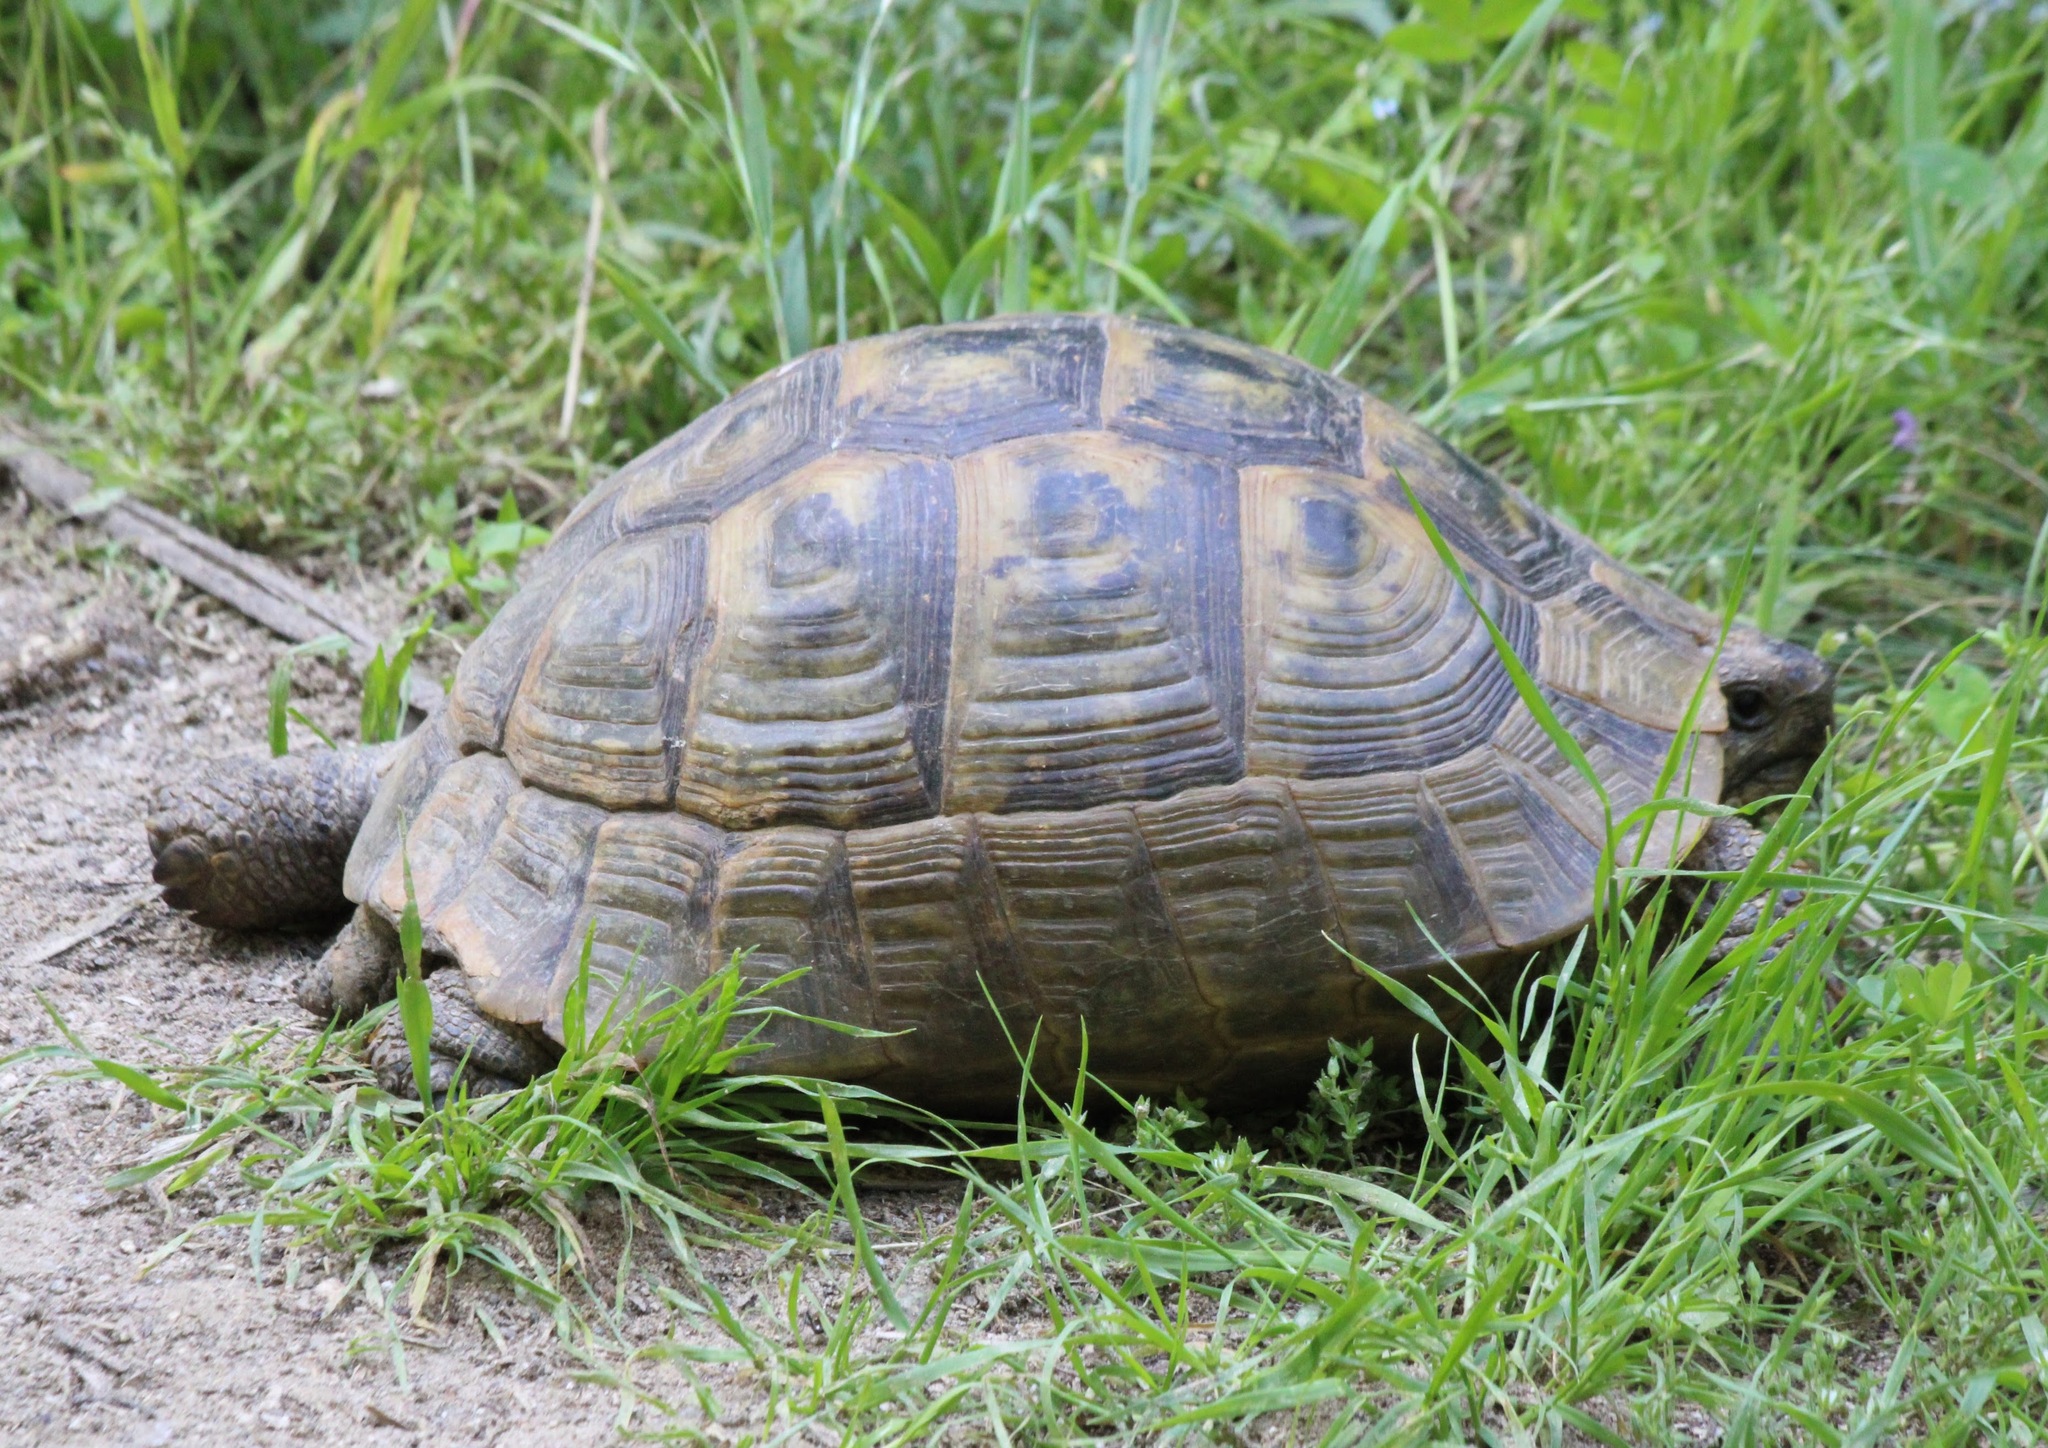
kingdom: Animalia
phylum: Chordata
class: Testudines
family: Testudinidae
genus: Testudo
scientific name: Testudo graeca
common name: Common tortoise
